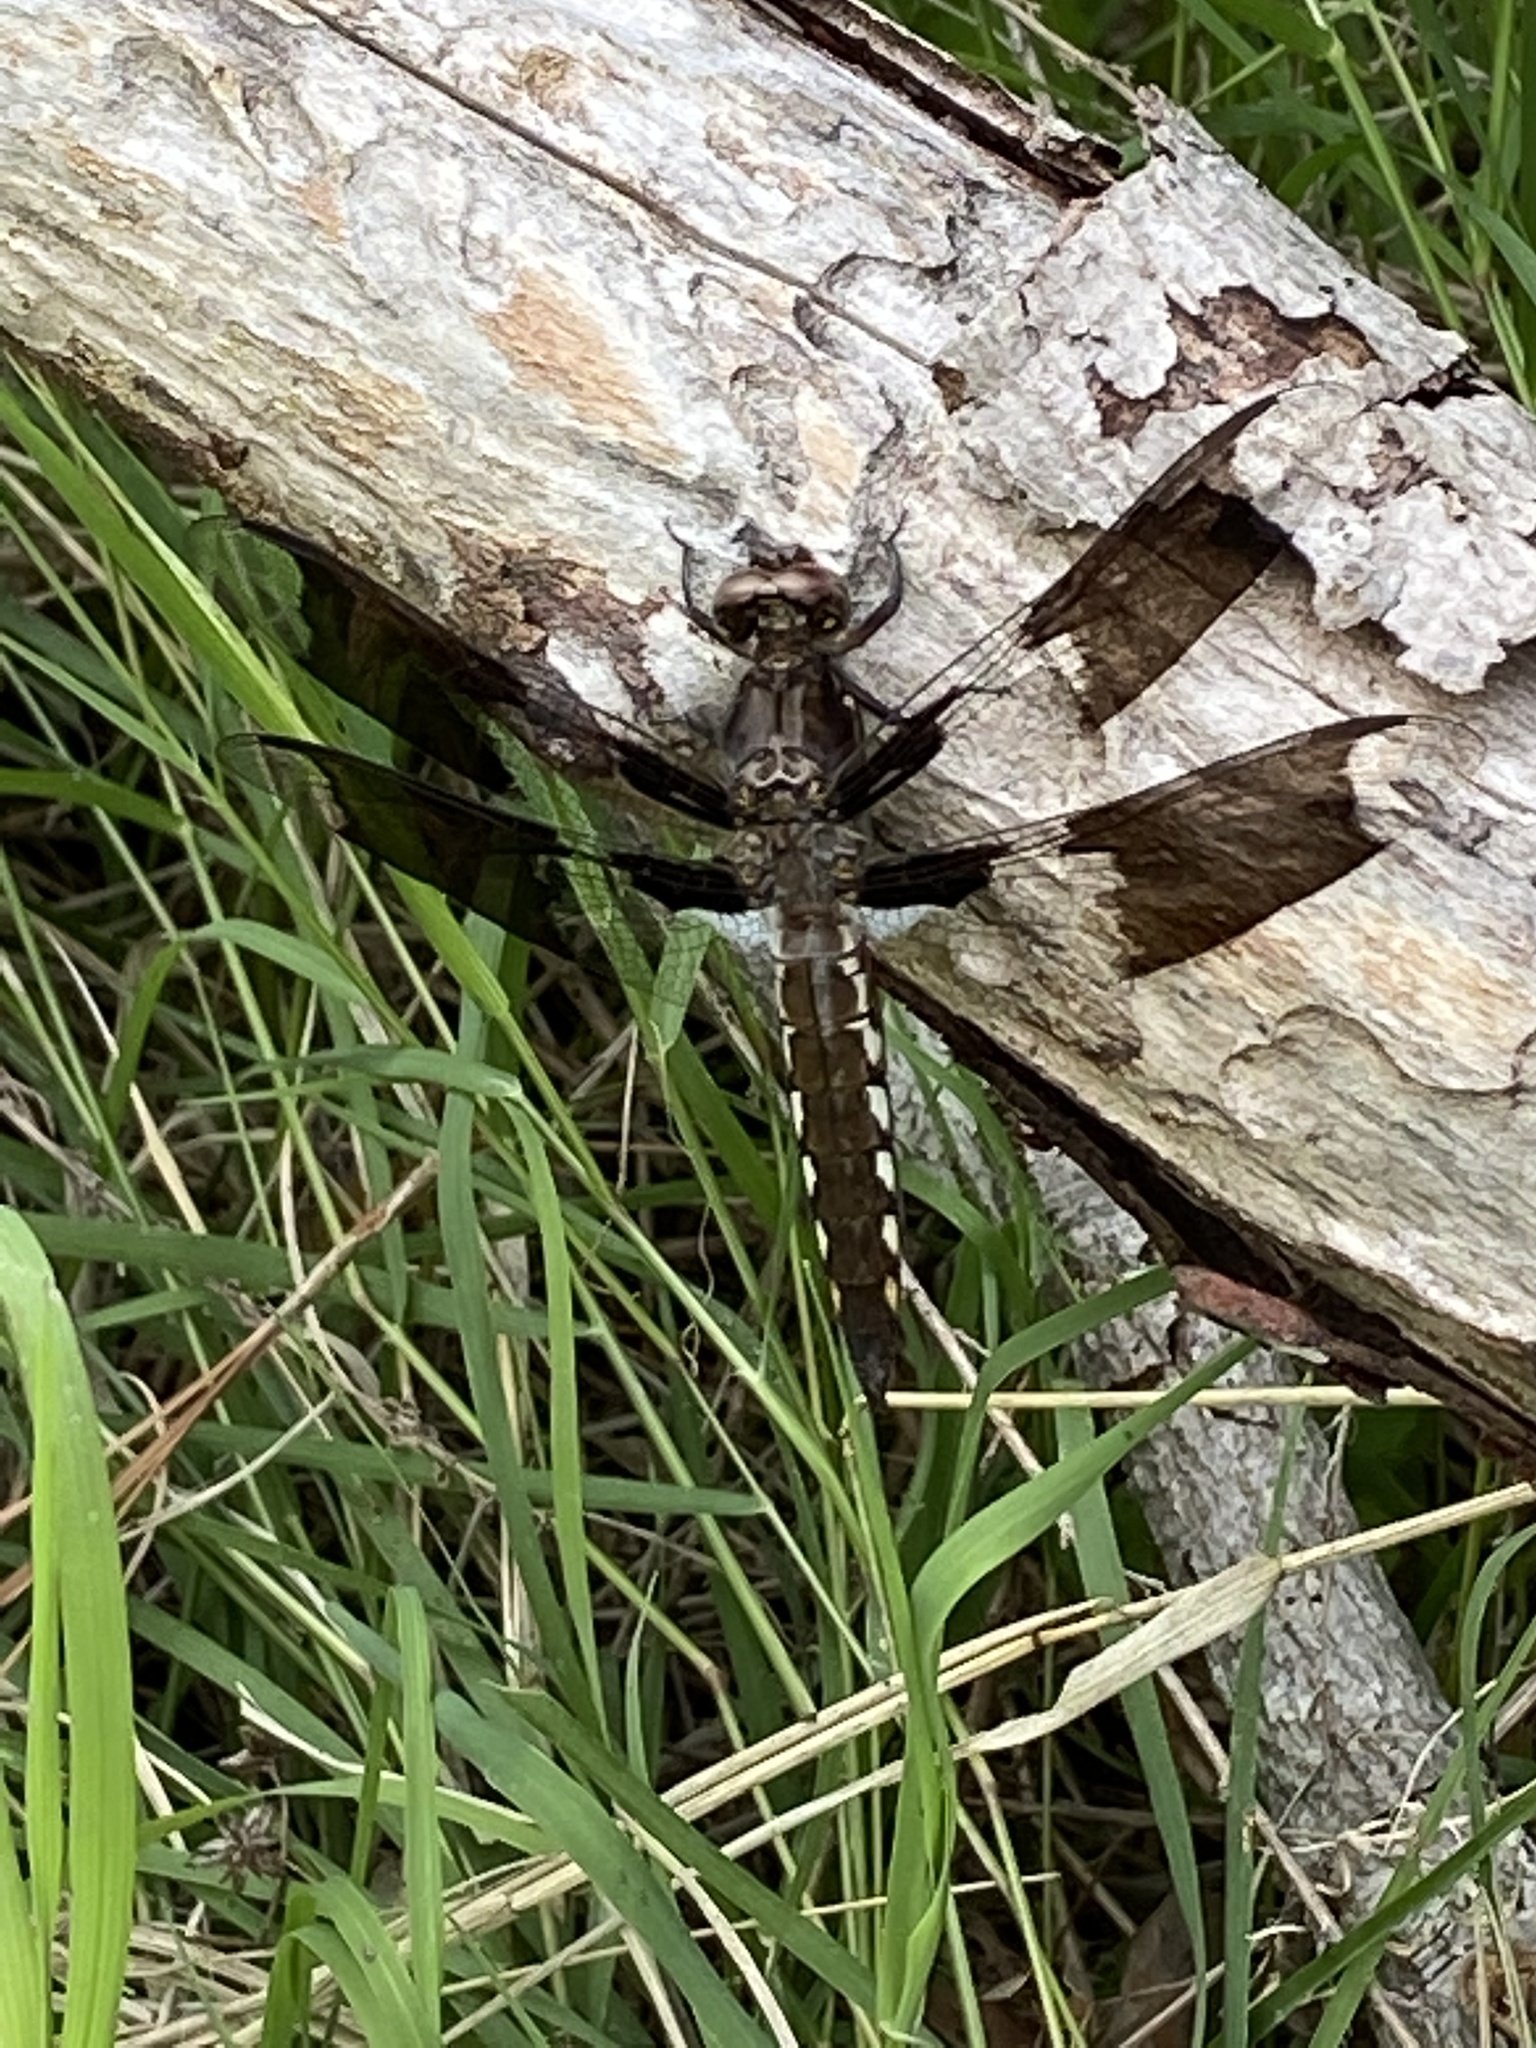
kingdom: Animalia
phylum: Arthropoda
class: Insecta
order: Odonata
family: Libellulidae
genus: Plathemis
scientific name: Plathemis lydia
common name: Common whitetail
